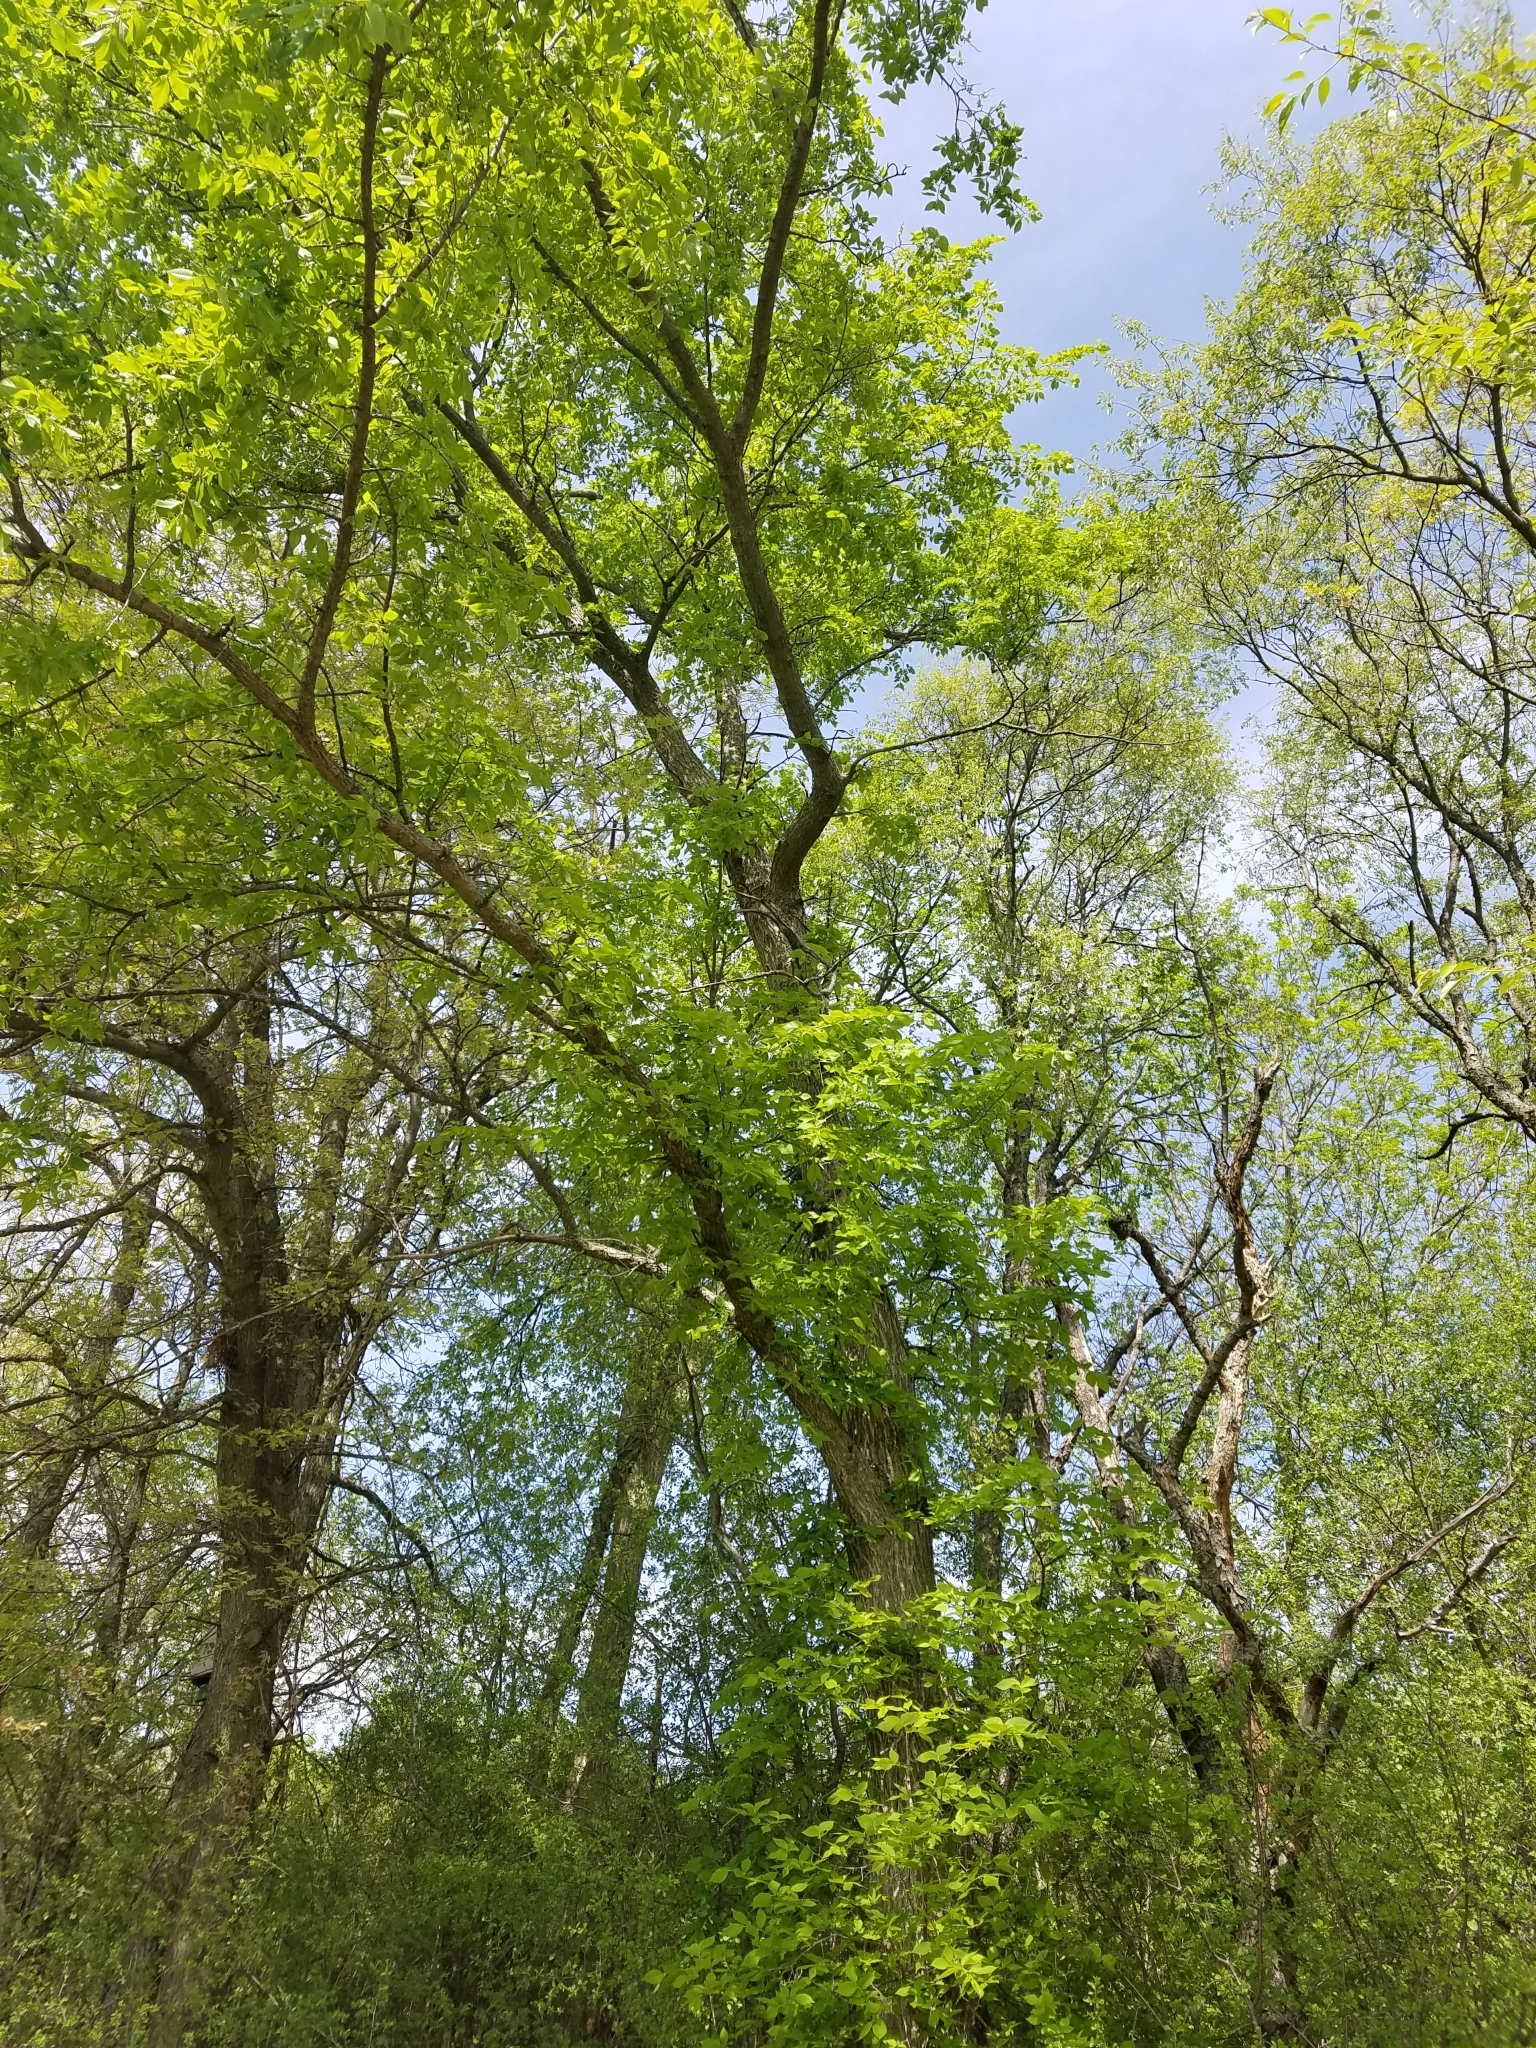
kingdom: Plantae
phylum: Tracheophyta
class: Magnoliopsida
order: Rosales
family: Ulmaceae
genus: Ulmus
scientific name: Ulmus americana
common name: American elm
